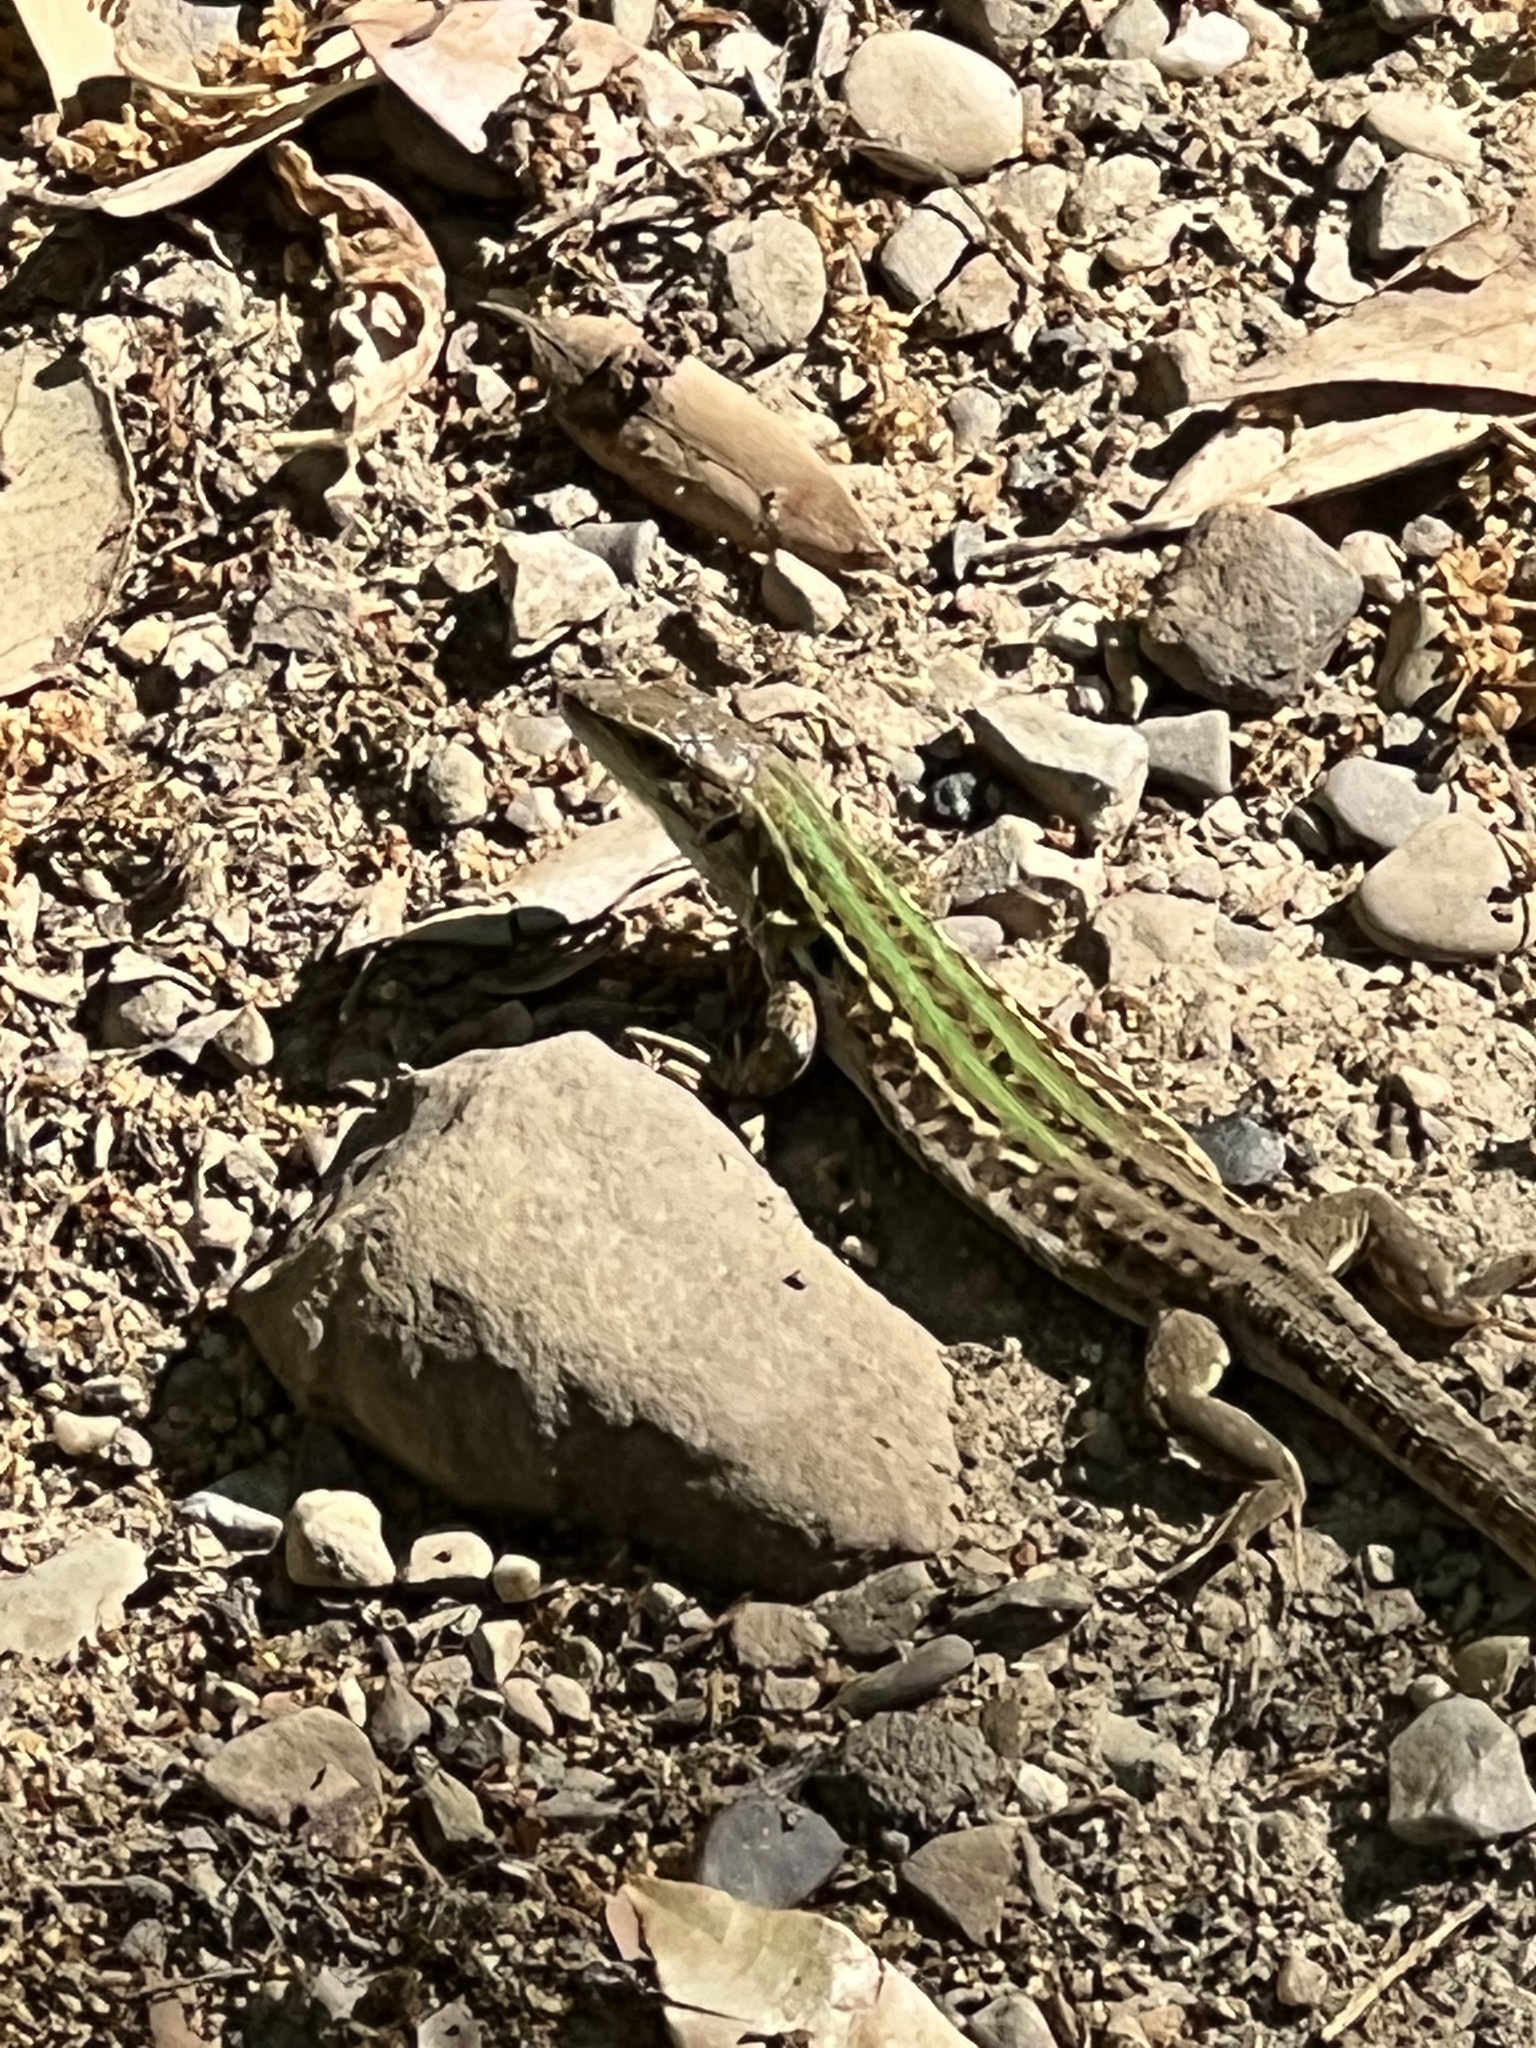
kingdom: Animalia
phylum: Chordata
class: Squamata
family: Lacertidae
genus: Podarcis
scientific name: Podarcis siculus
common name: Italian wall lizard
